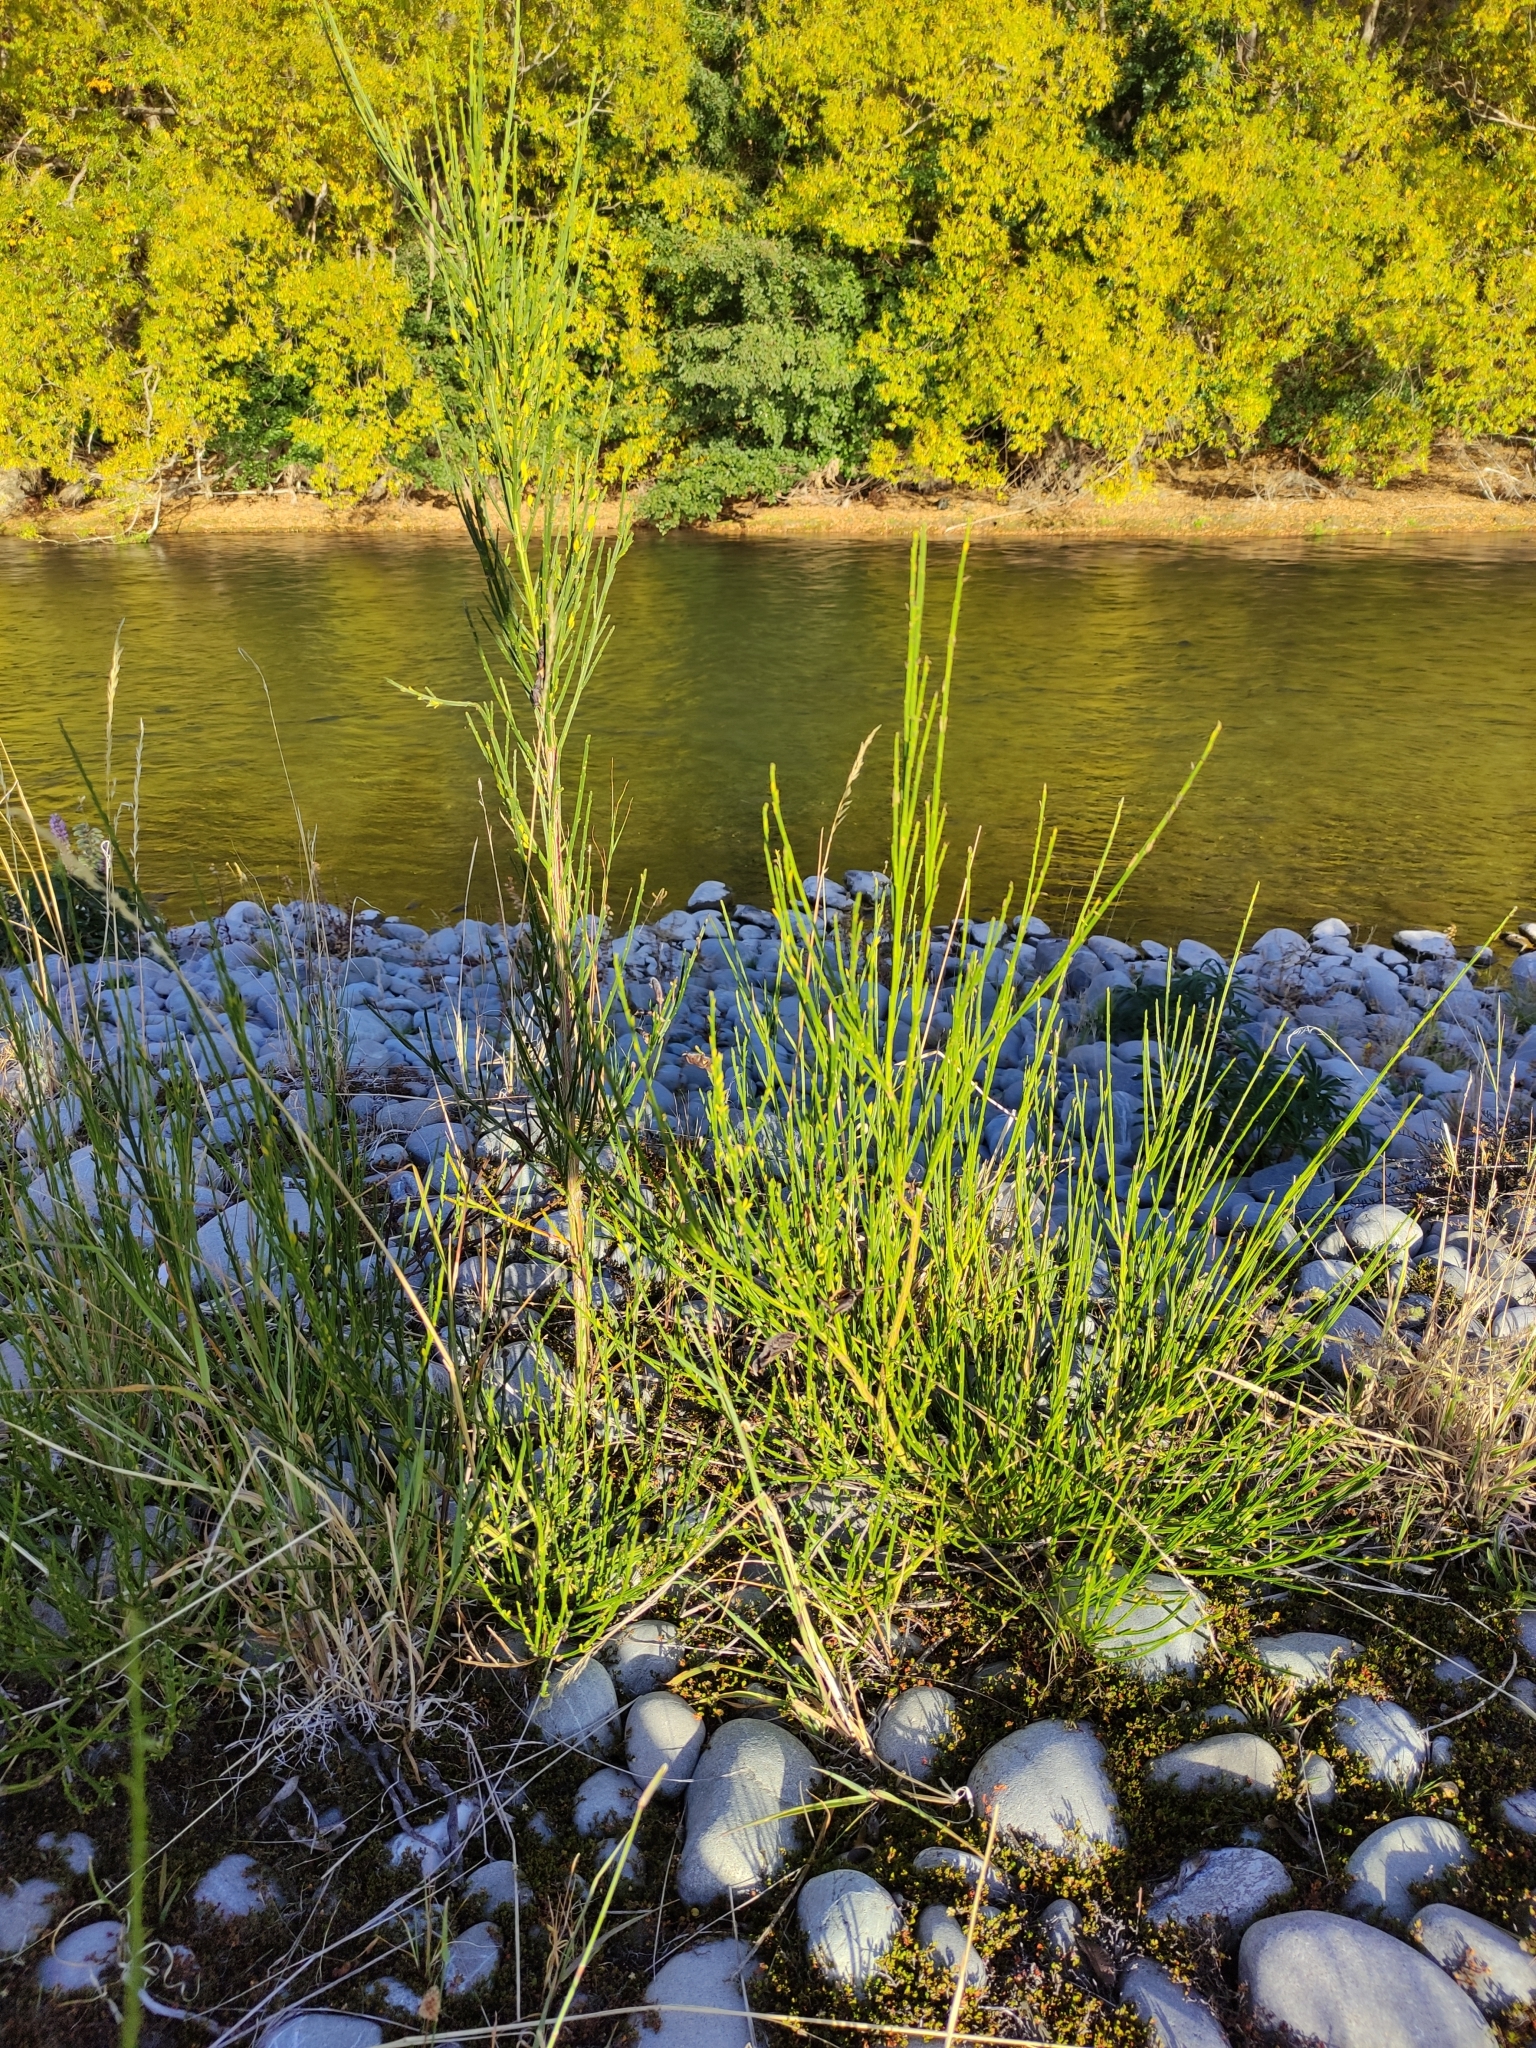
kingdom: Plantae
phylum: Tracheophyta
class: Magnoliopsida
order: Fabales
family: Fabaceae
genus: Cytisus
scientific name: Cytisus scoparius
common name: Scotch broom
